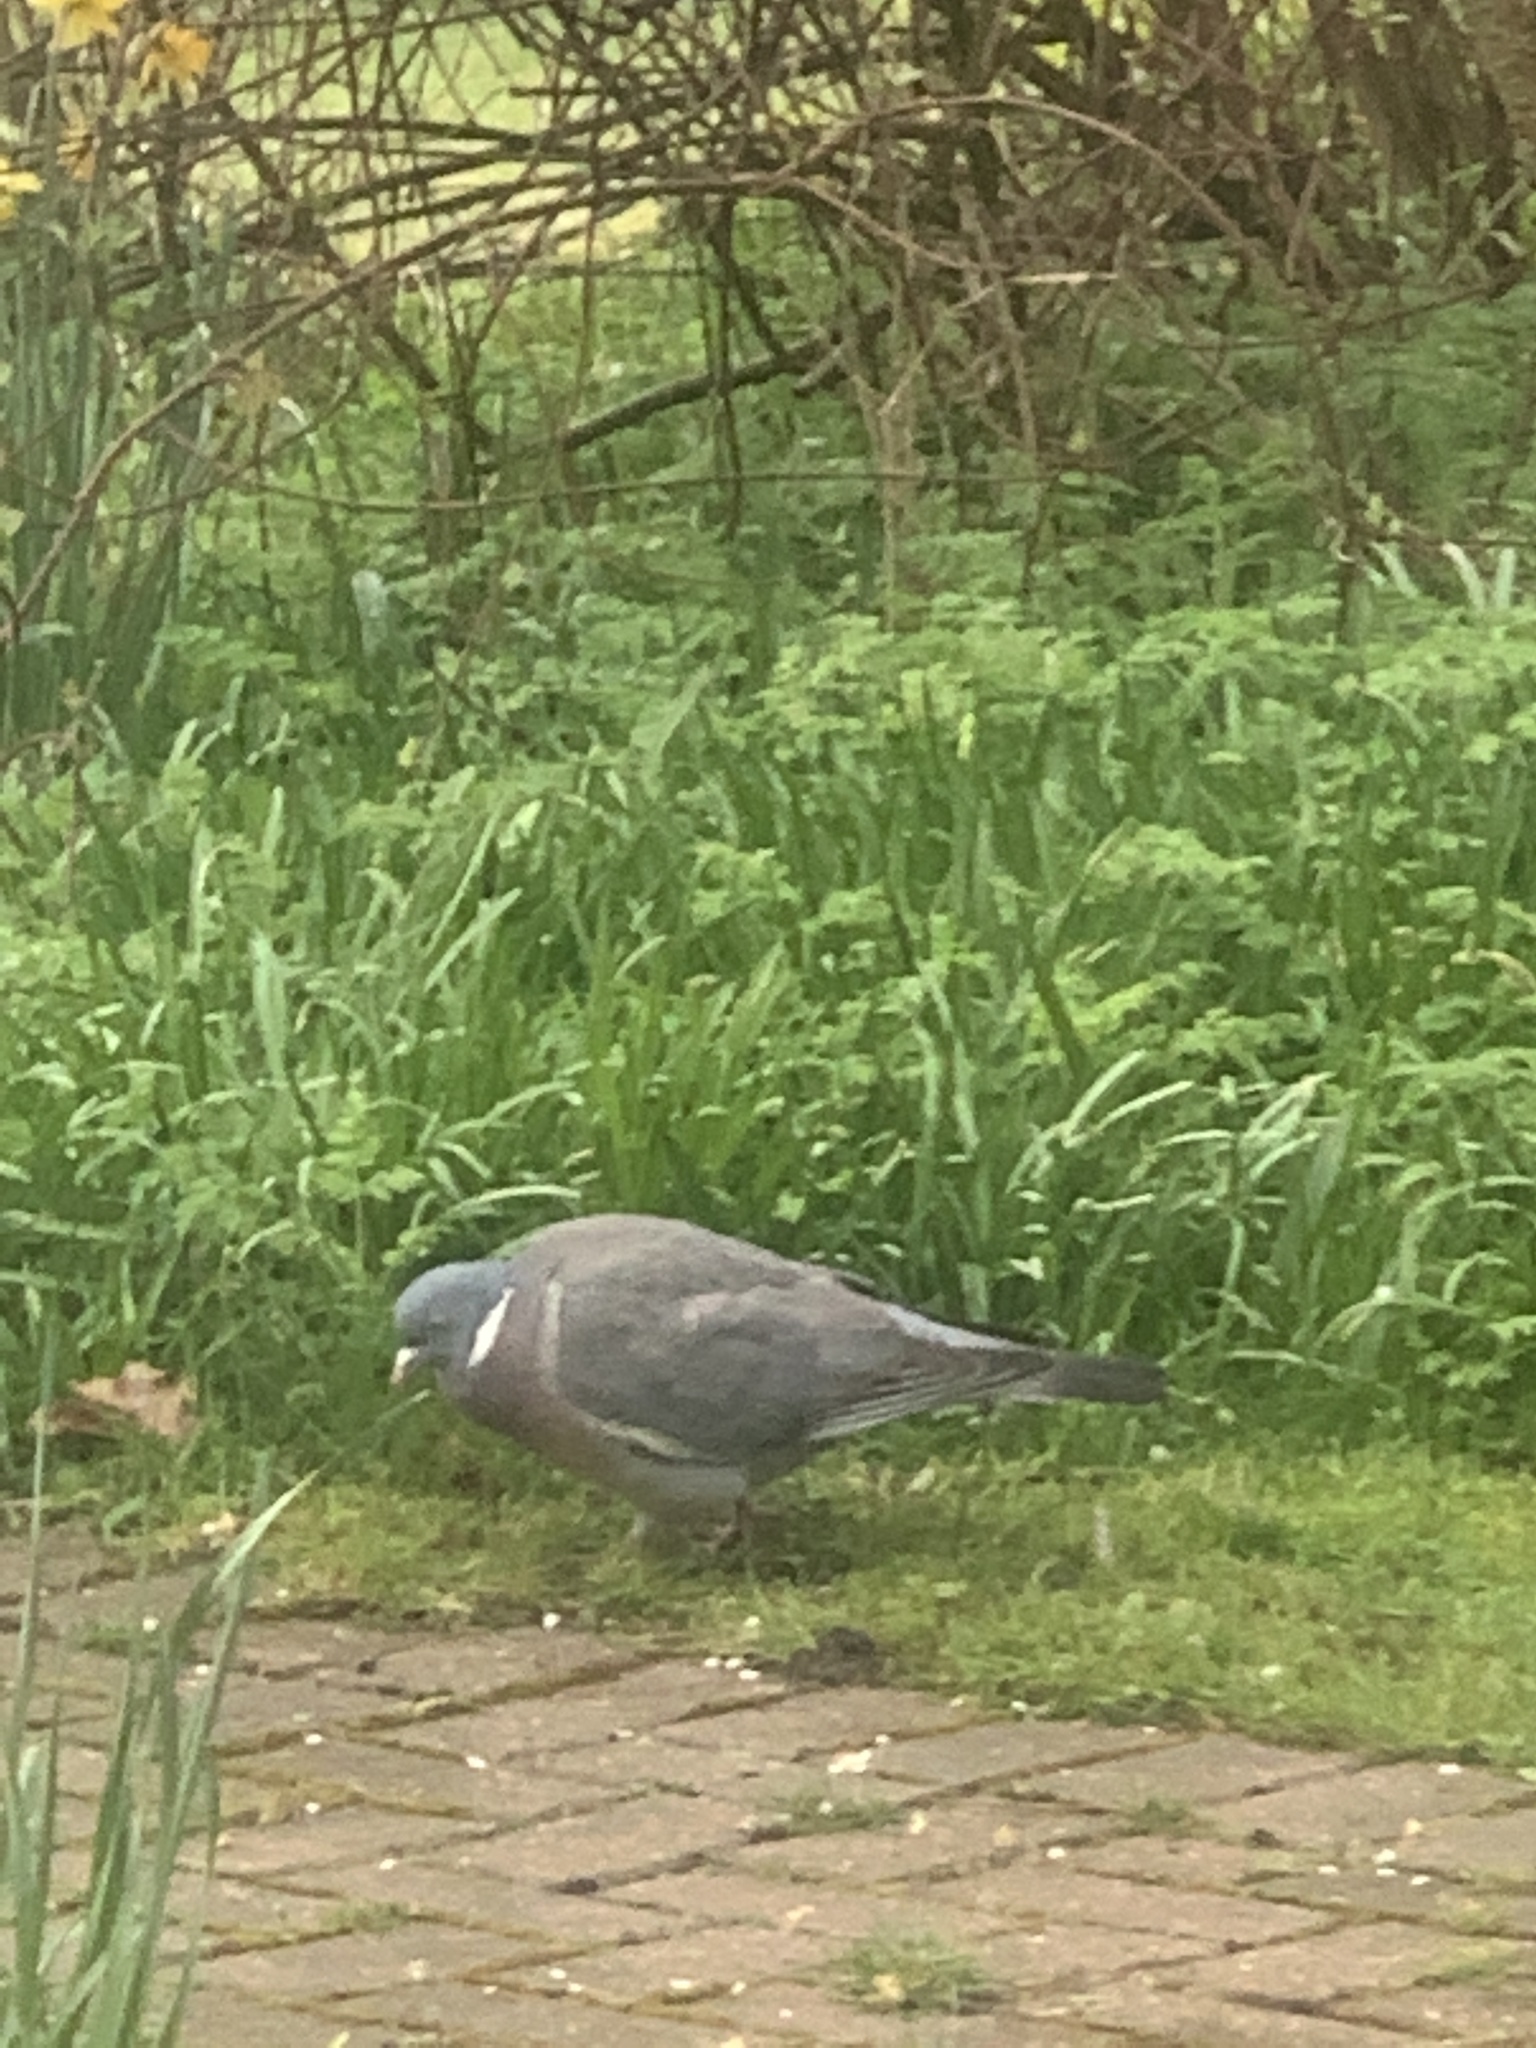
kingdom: Animalia
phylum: Chordata
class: Aves
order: Columbiformes
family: Columbidae
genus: Columba
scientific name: Columba palumbus
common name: Common wood pigeon
